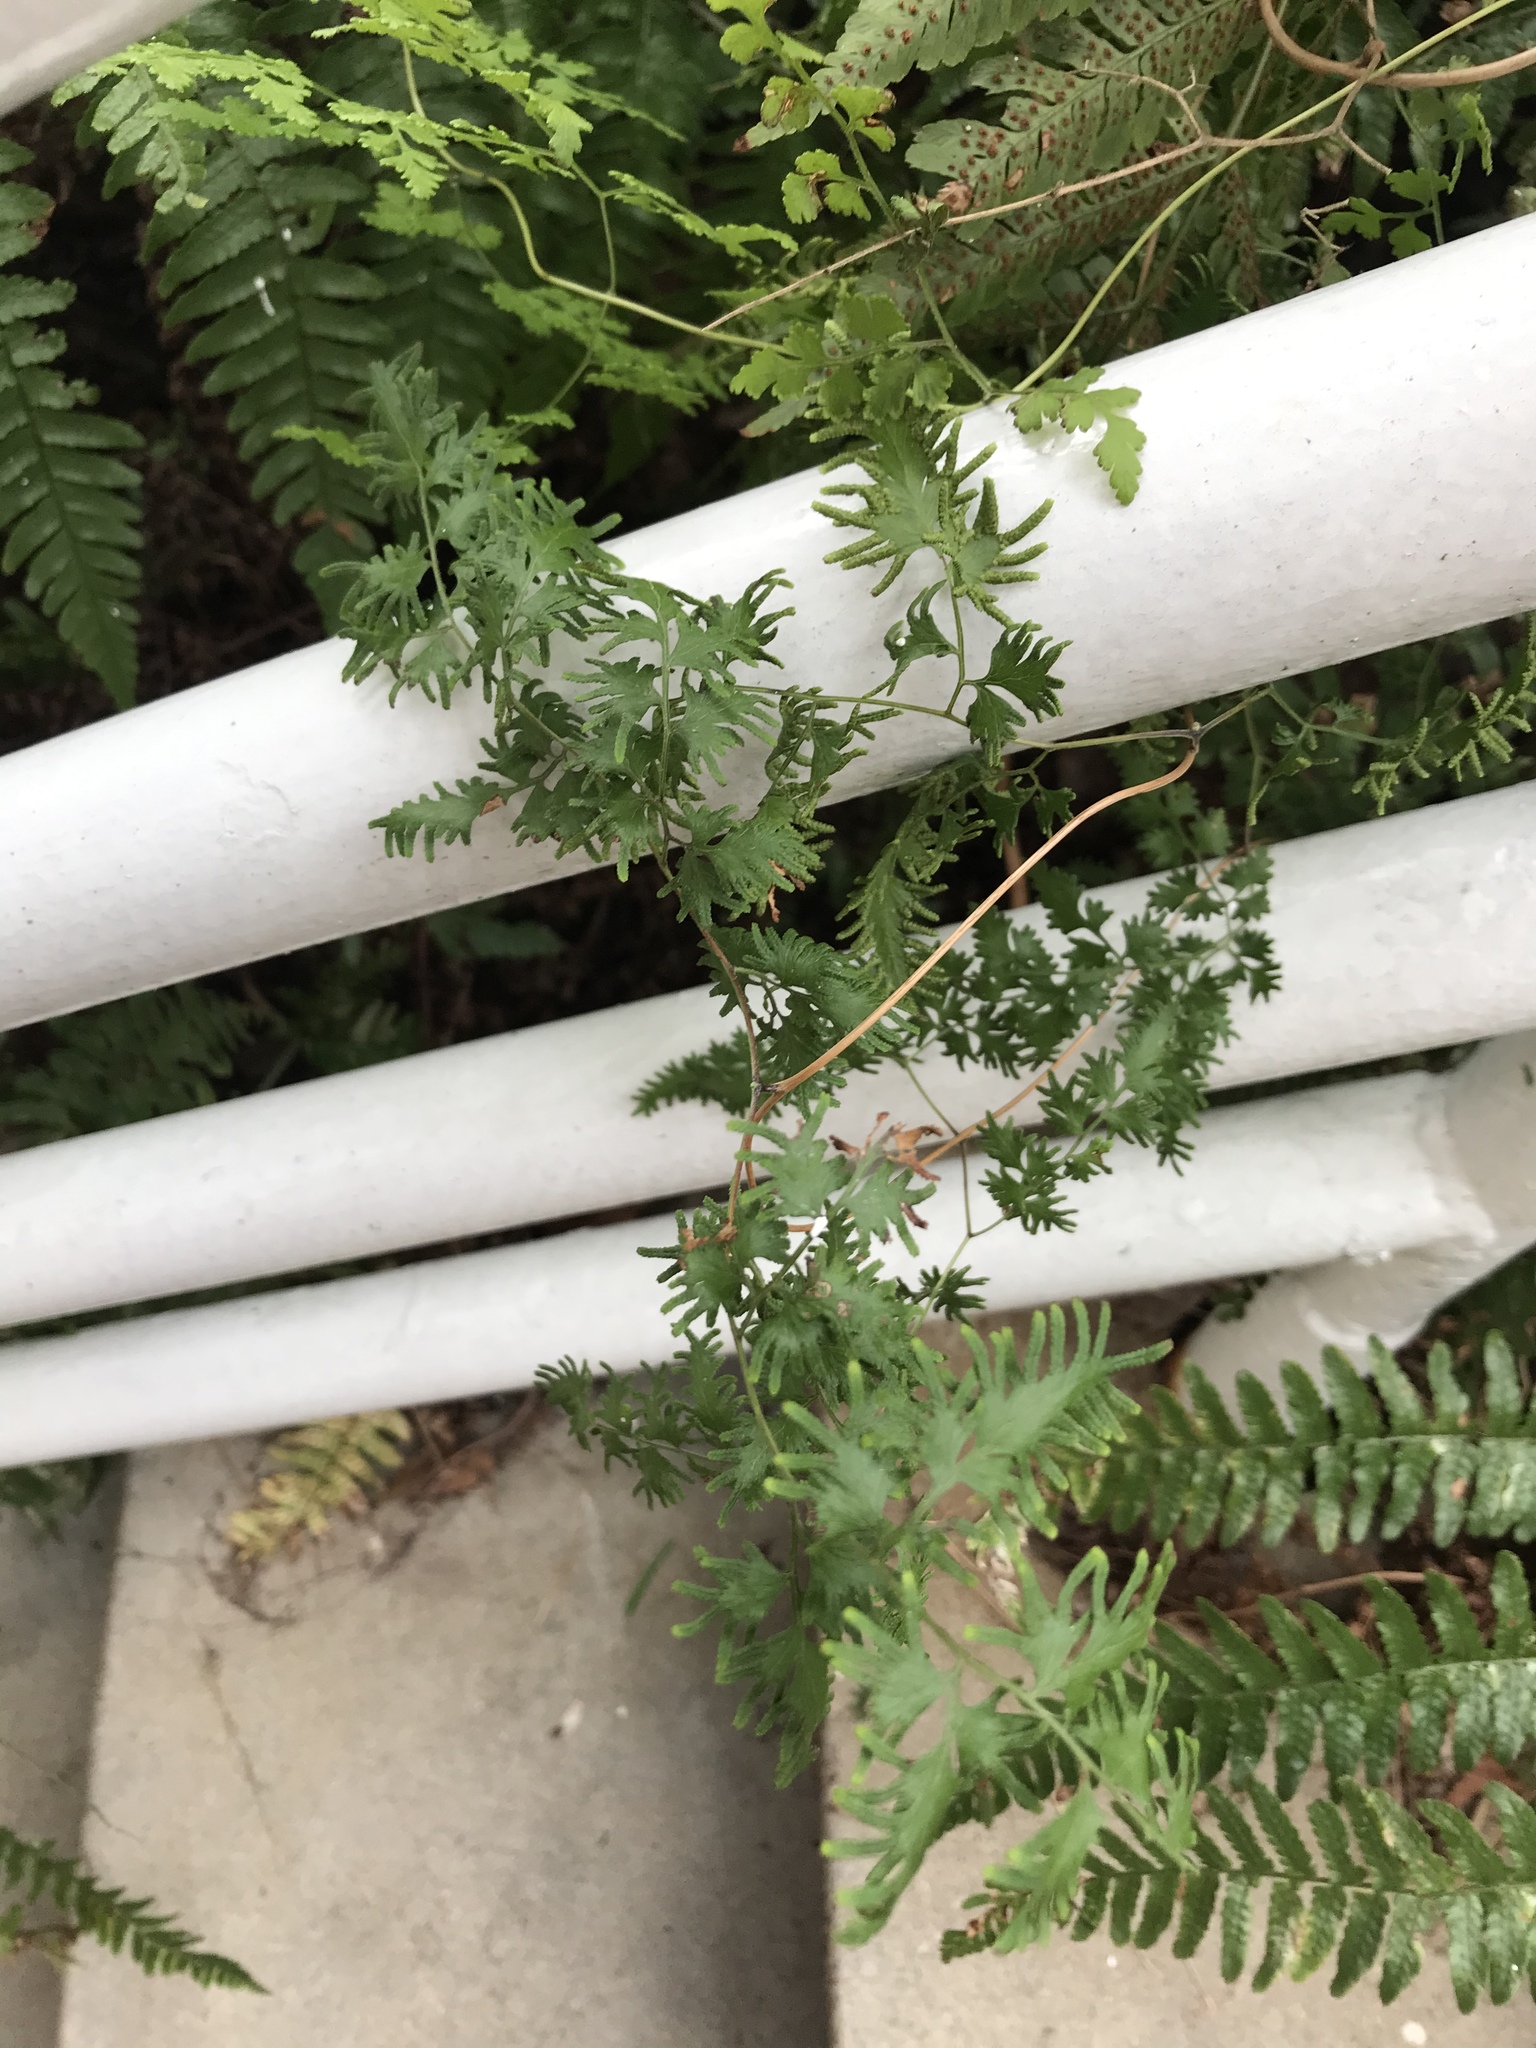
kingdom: Plantae
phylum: Tracheophyta
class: Polypodiopsida
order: Schizaeales
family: Lygodiaceae
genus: Lygodium
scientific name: Lygodium japonicum
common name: Japanese climbing fern
